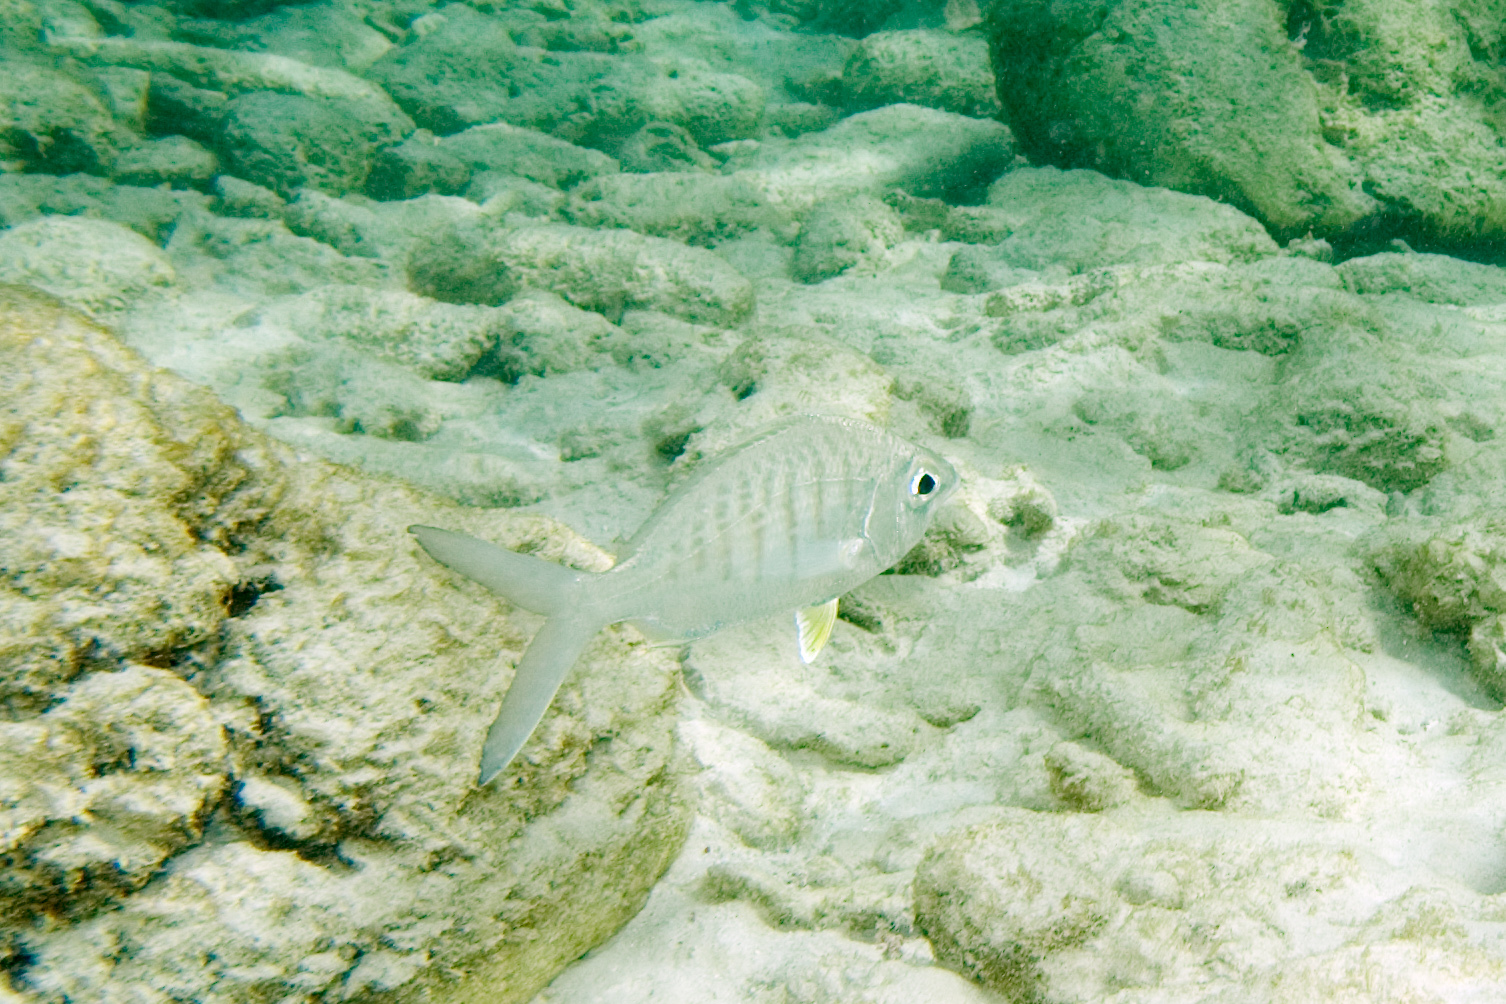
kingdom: Animalia
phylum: Chordata
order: Perciformes
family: Gerreidae
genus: Gerres
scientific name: Gerres cinereus
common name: Hedow
